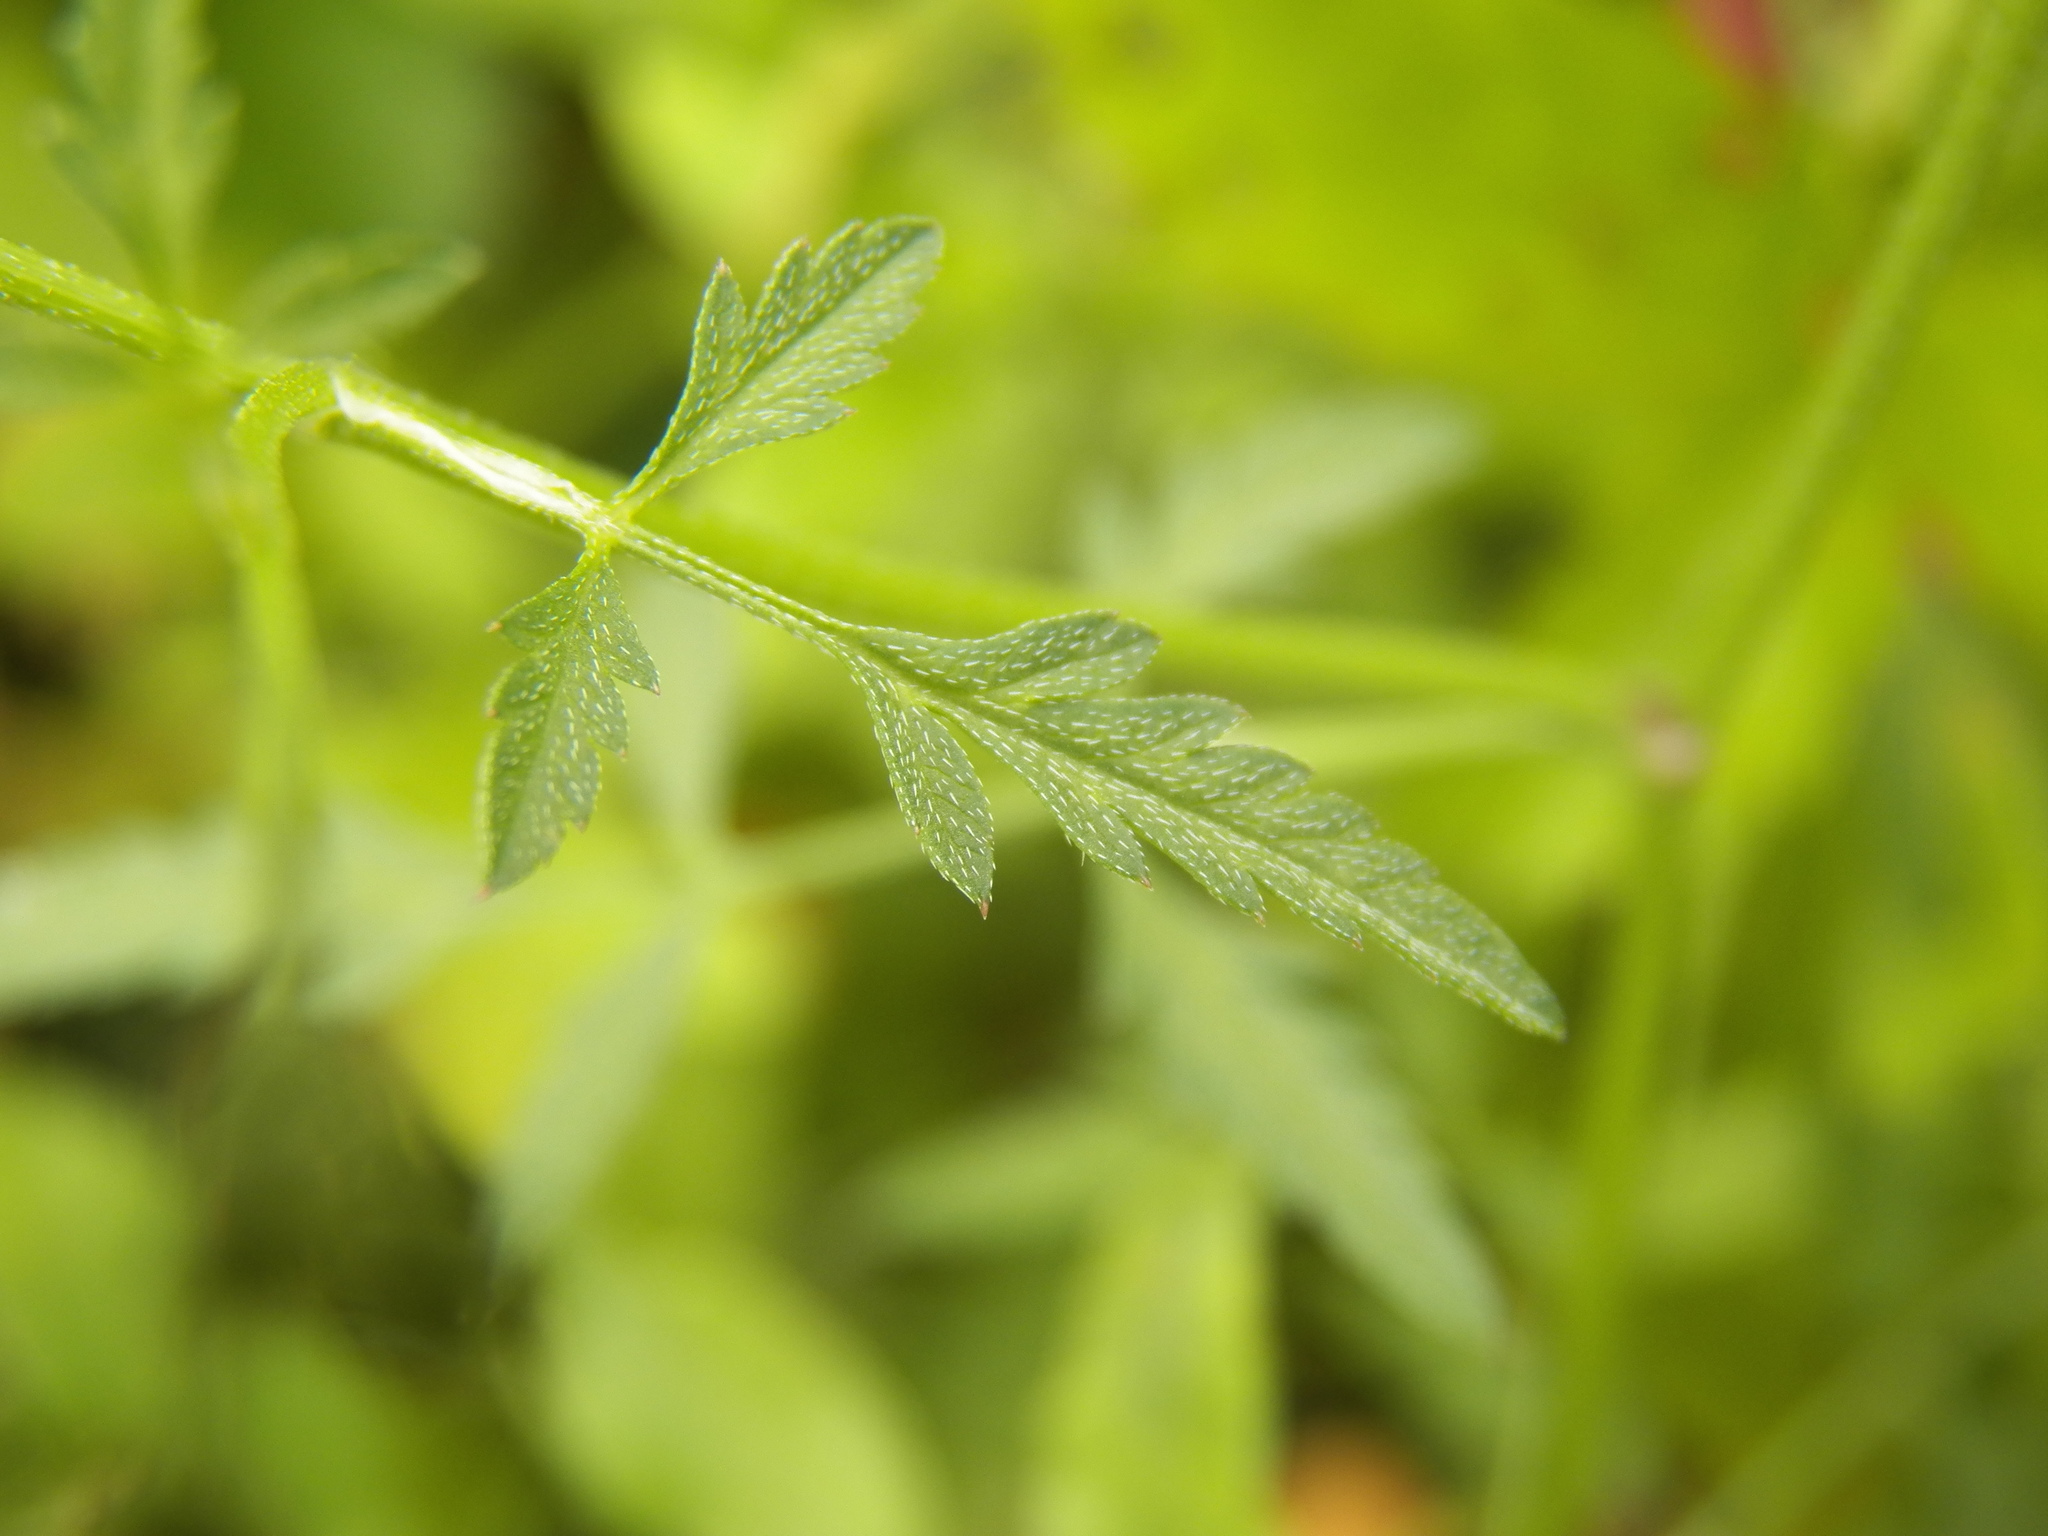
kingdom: Plantae
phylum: Tracheophyta
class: Magnoliopsida
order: Apiales
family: Apiaceae
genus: Torilis
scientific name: Torilis arvensis
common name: Spreading hedge-parsley
